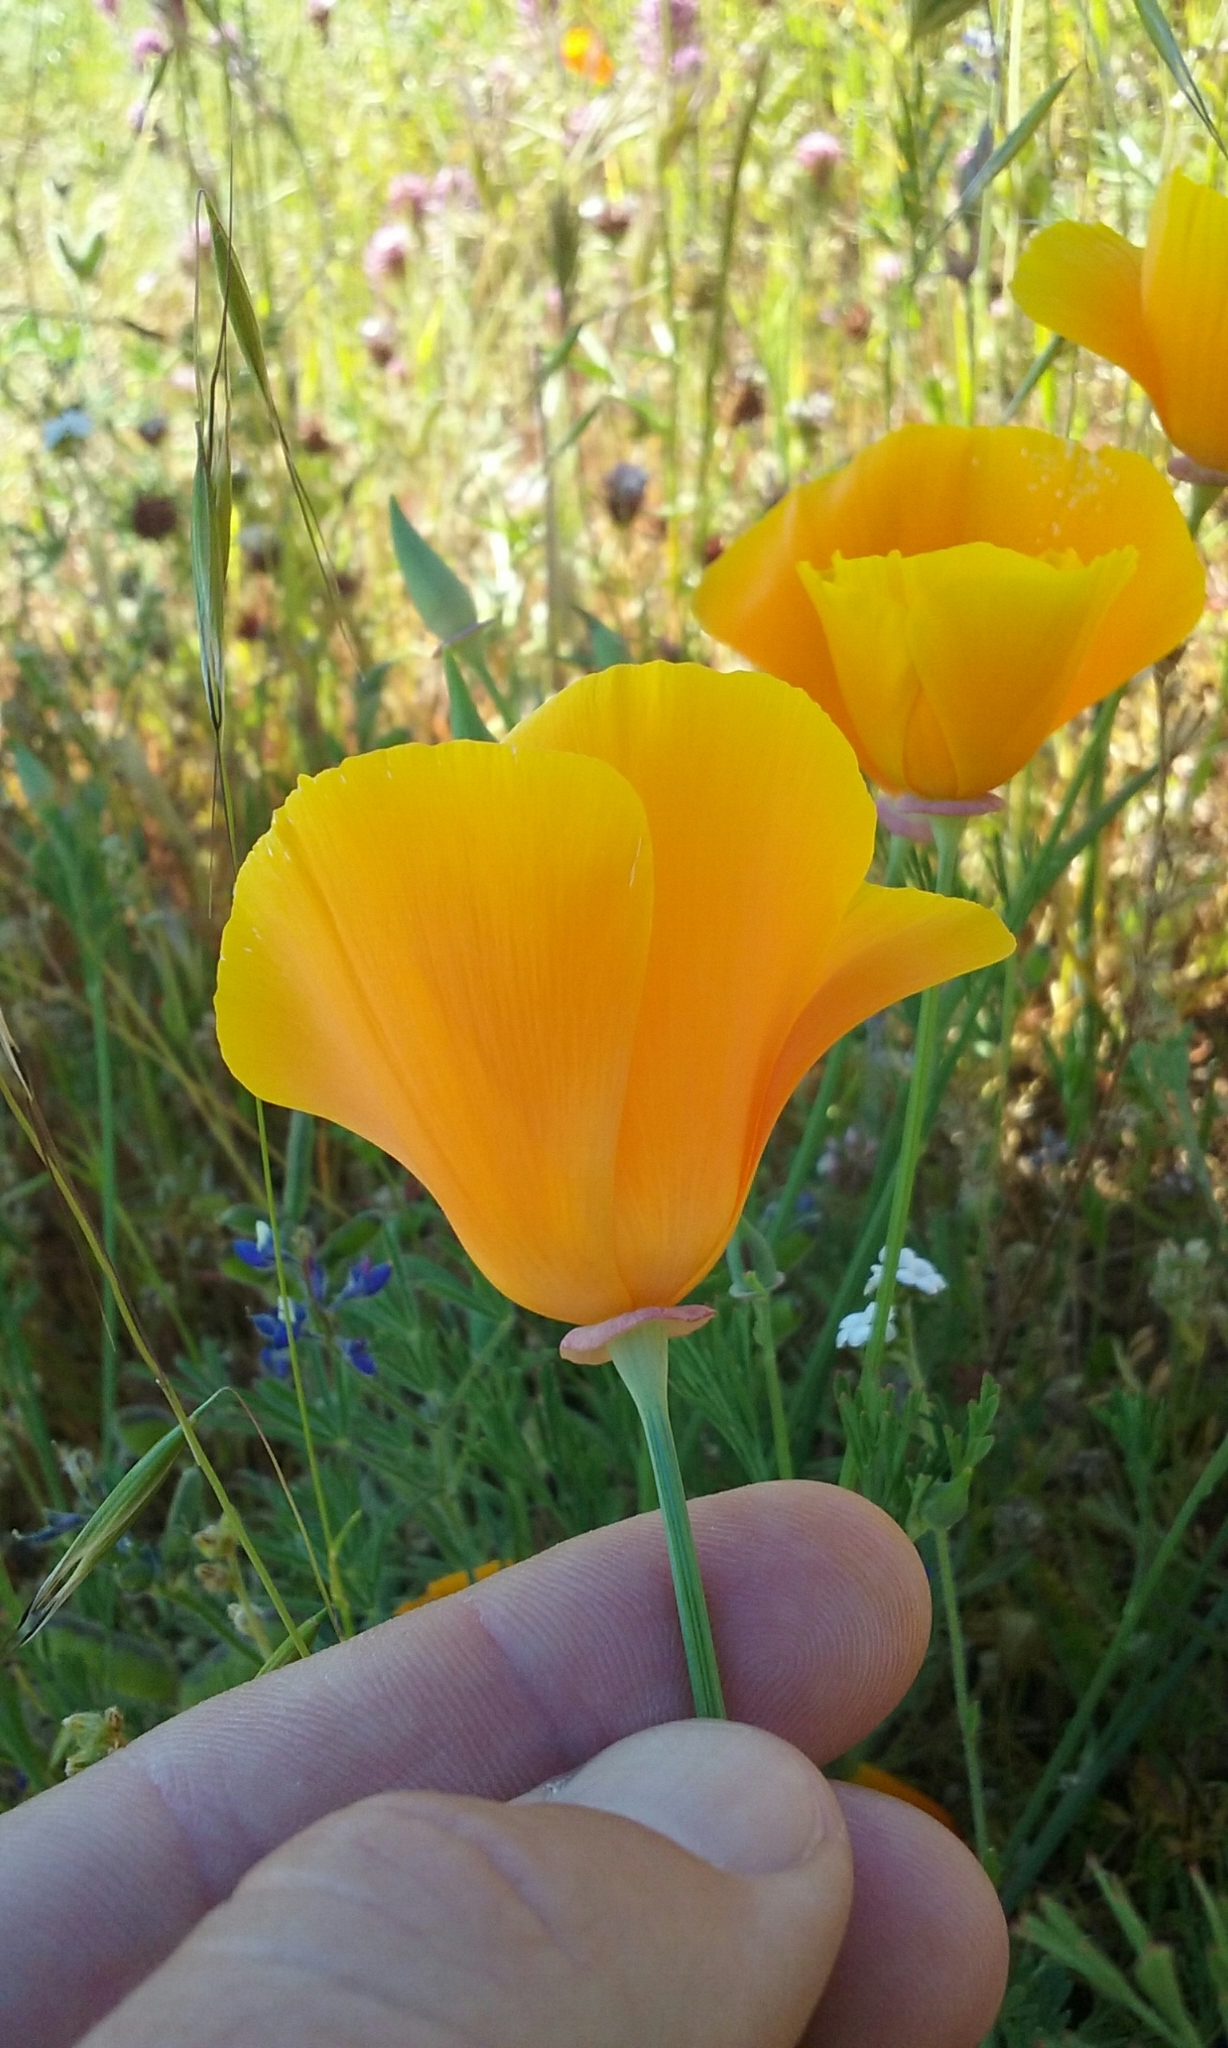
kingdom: Plantae
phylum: Tracheophyta
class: Magnoliopsida
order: Ranunculales
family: Papaveraceae
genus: Eschscholzia
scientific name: Eschscholzia californica
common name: California poppy
